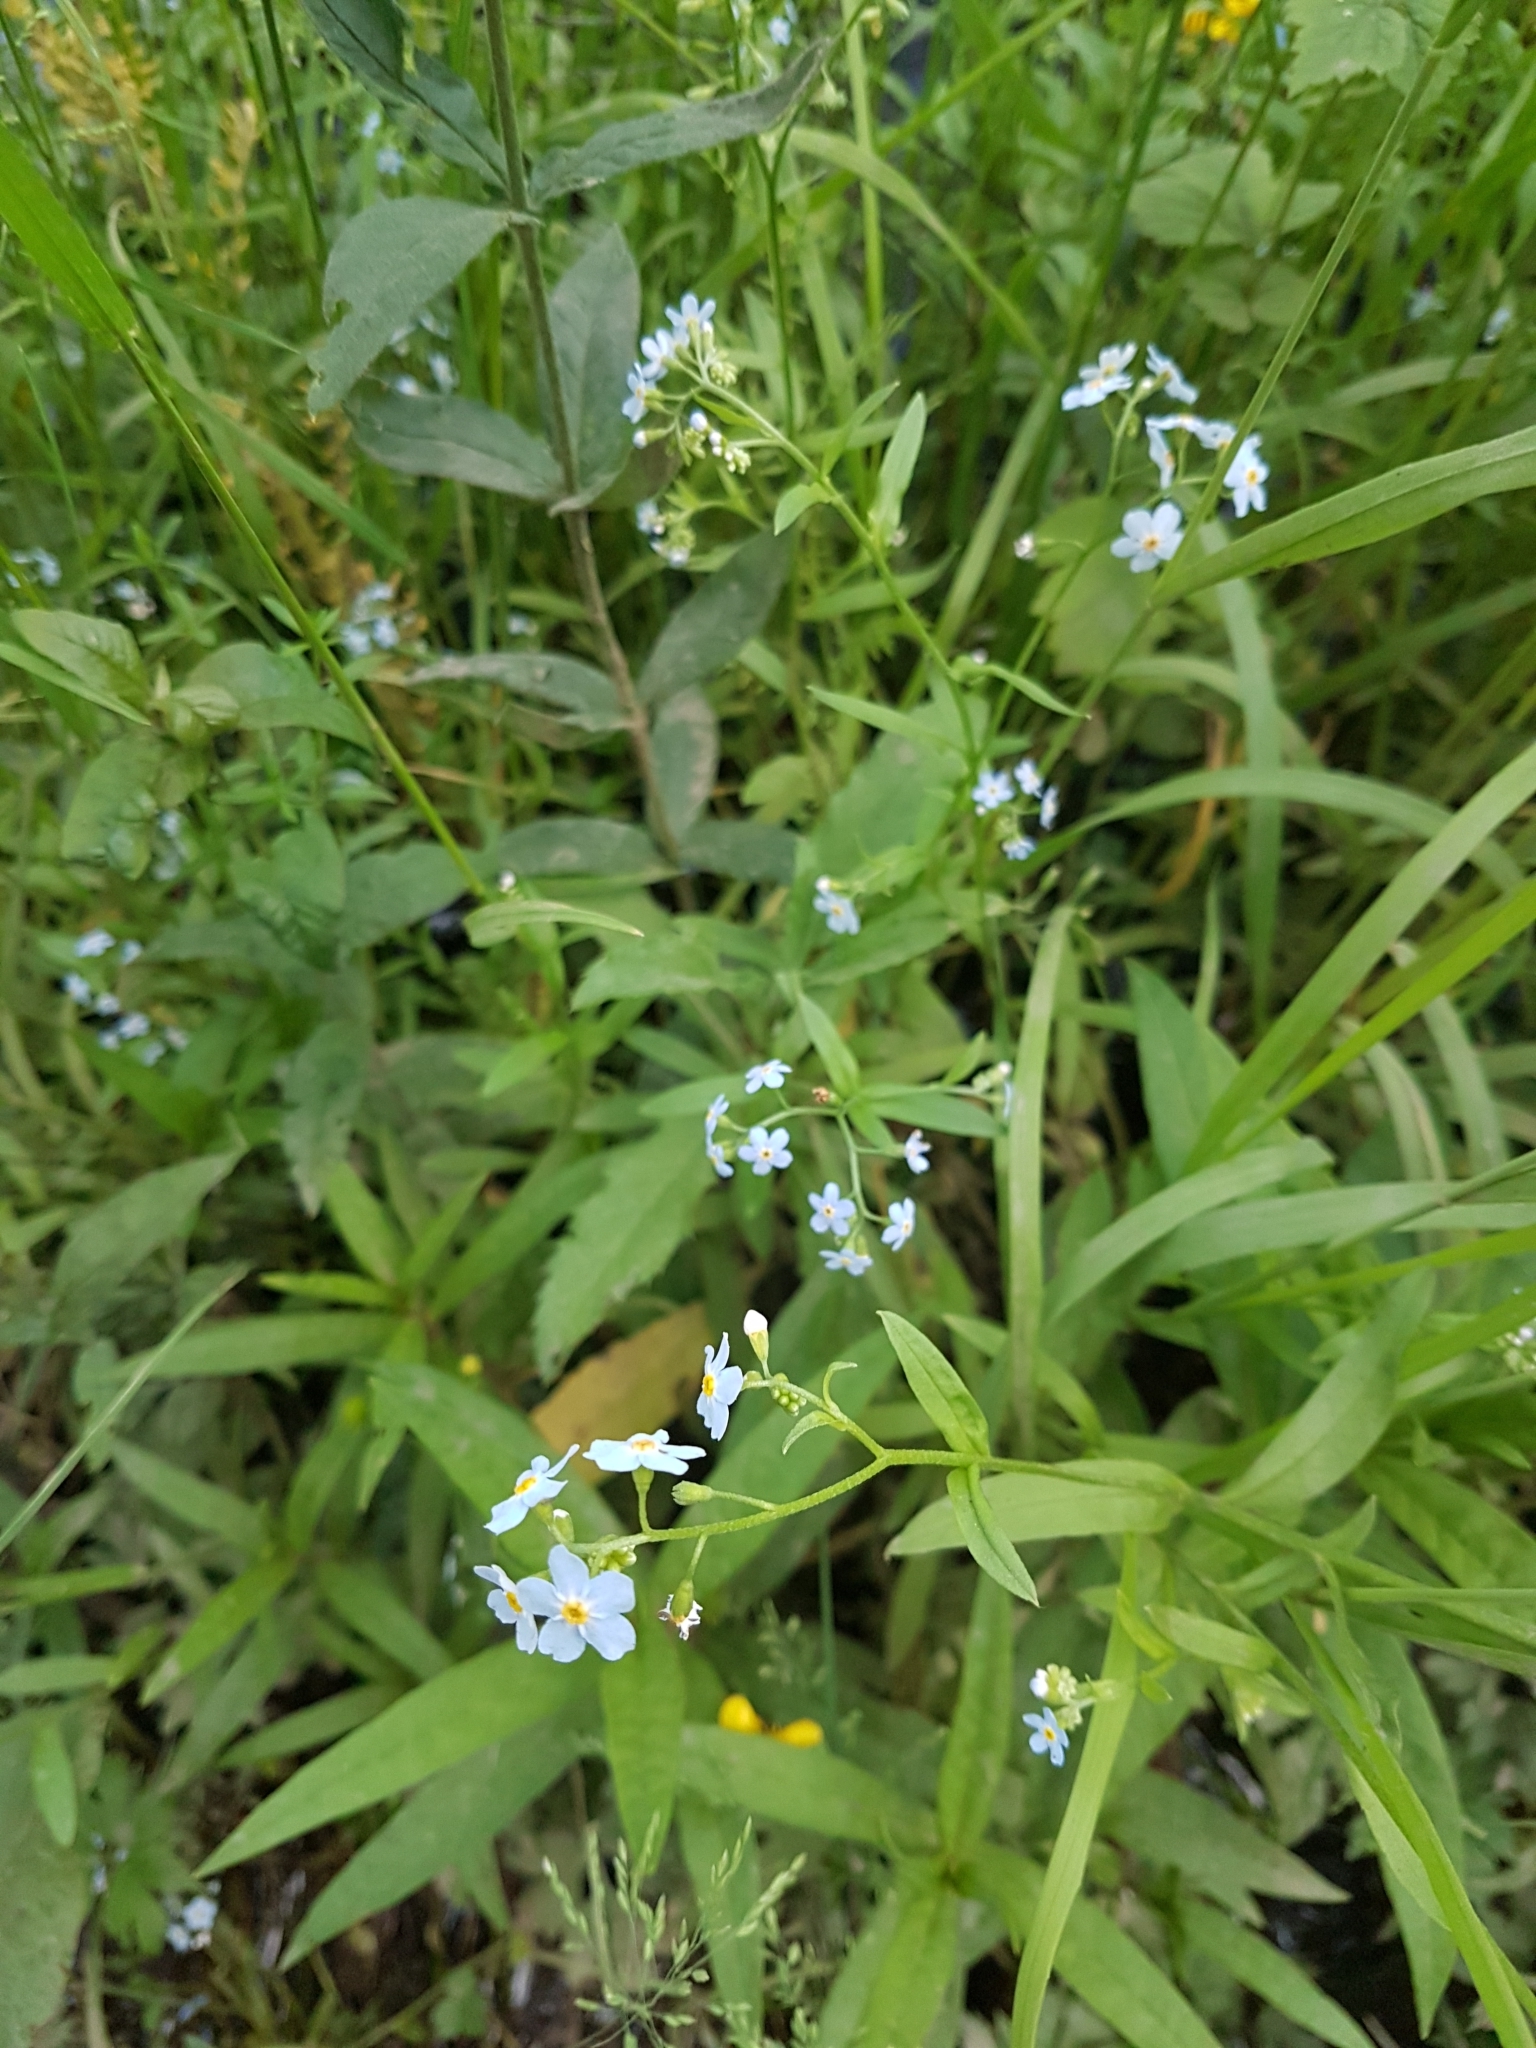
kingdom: Plantae
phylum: Tracheophyta
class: Magnoliopsida
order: Boraginales
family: Boraginaceae
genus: Myosotis
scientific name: Myosotis scorpioides
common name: Water forget-me-not
